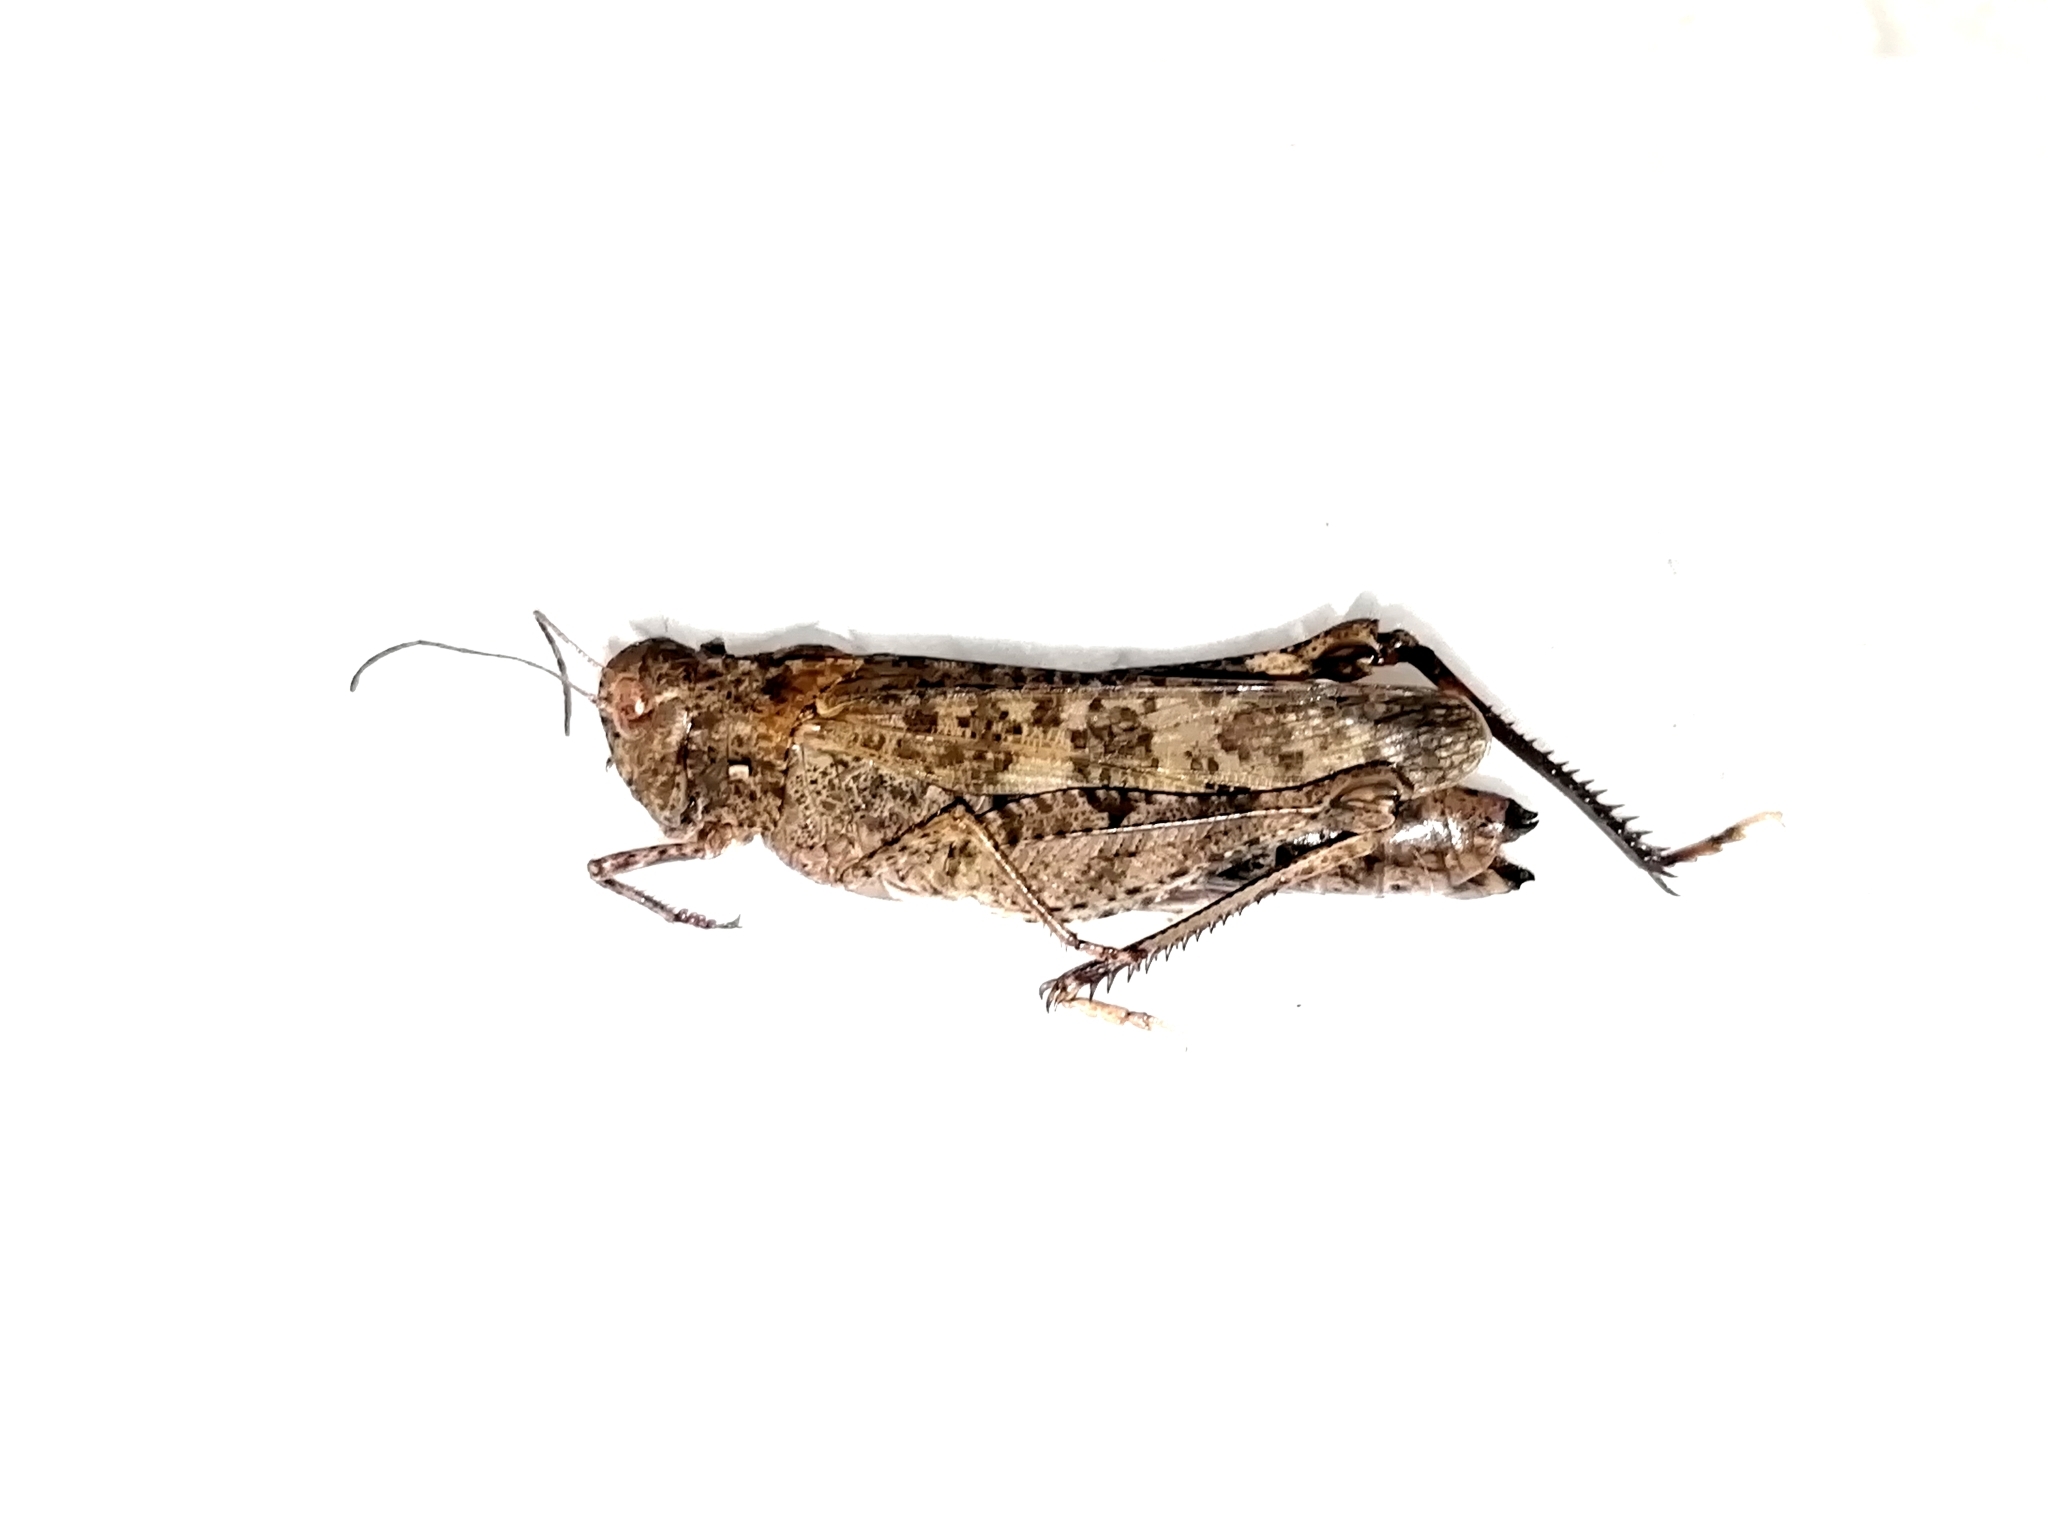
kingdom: Animalia
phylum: Arthropoda
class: Insecta
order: Orthoptera
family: Acrididae
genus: Celes
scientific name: Celes variabilis
